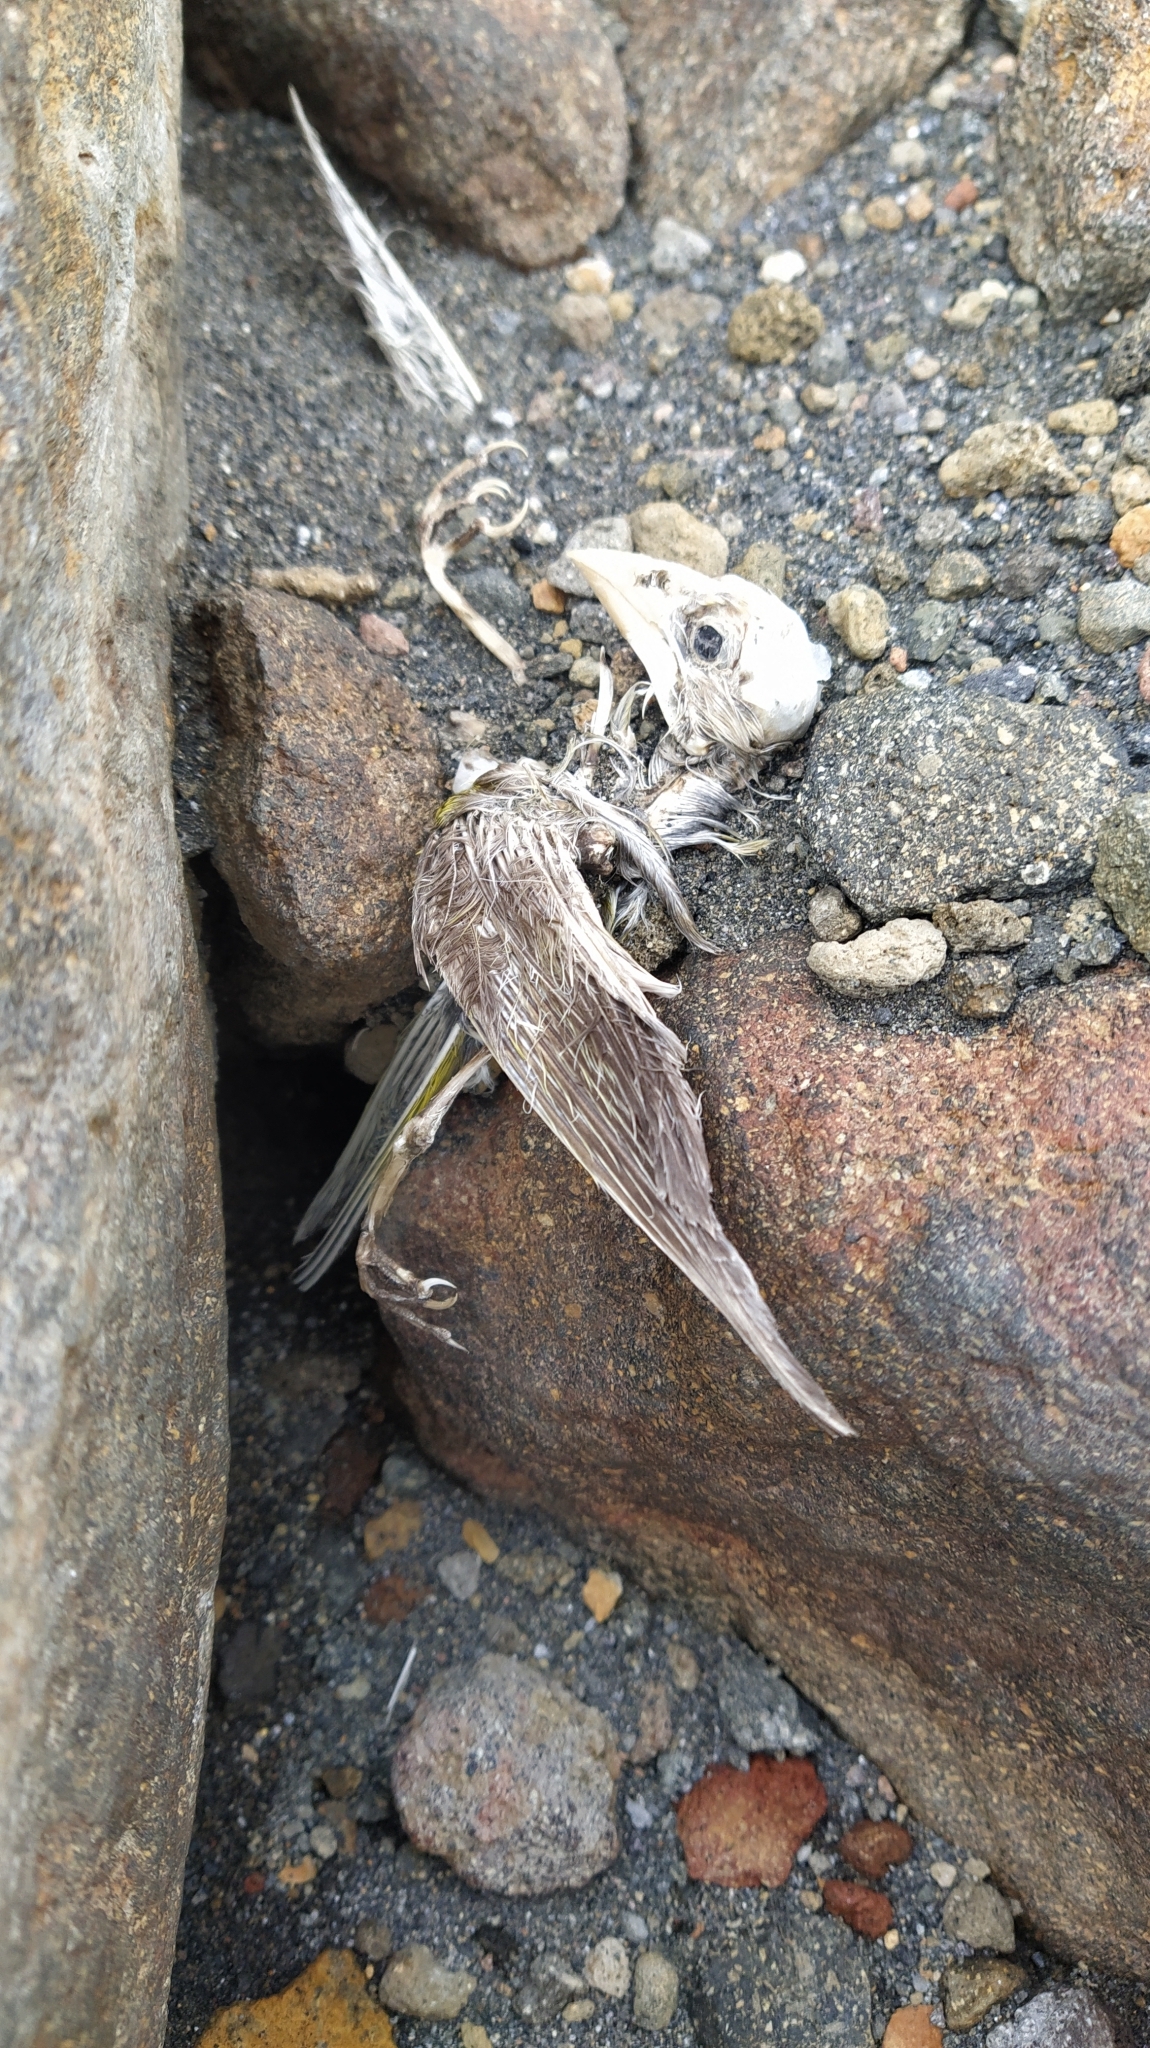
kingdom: Plantae
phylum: Tracheophyta
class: Liliopsida
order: Poales
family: Poaceae
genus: Chloris
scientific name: Chloris chloris
